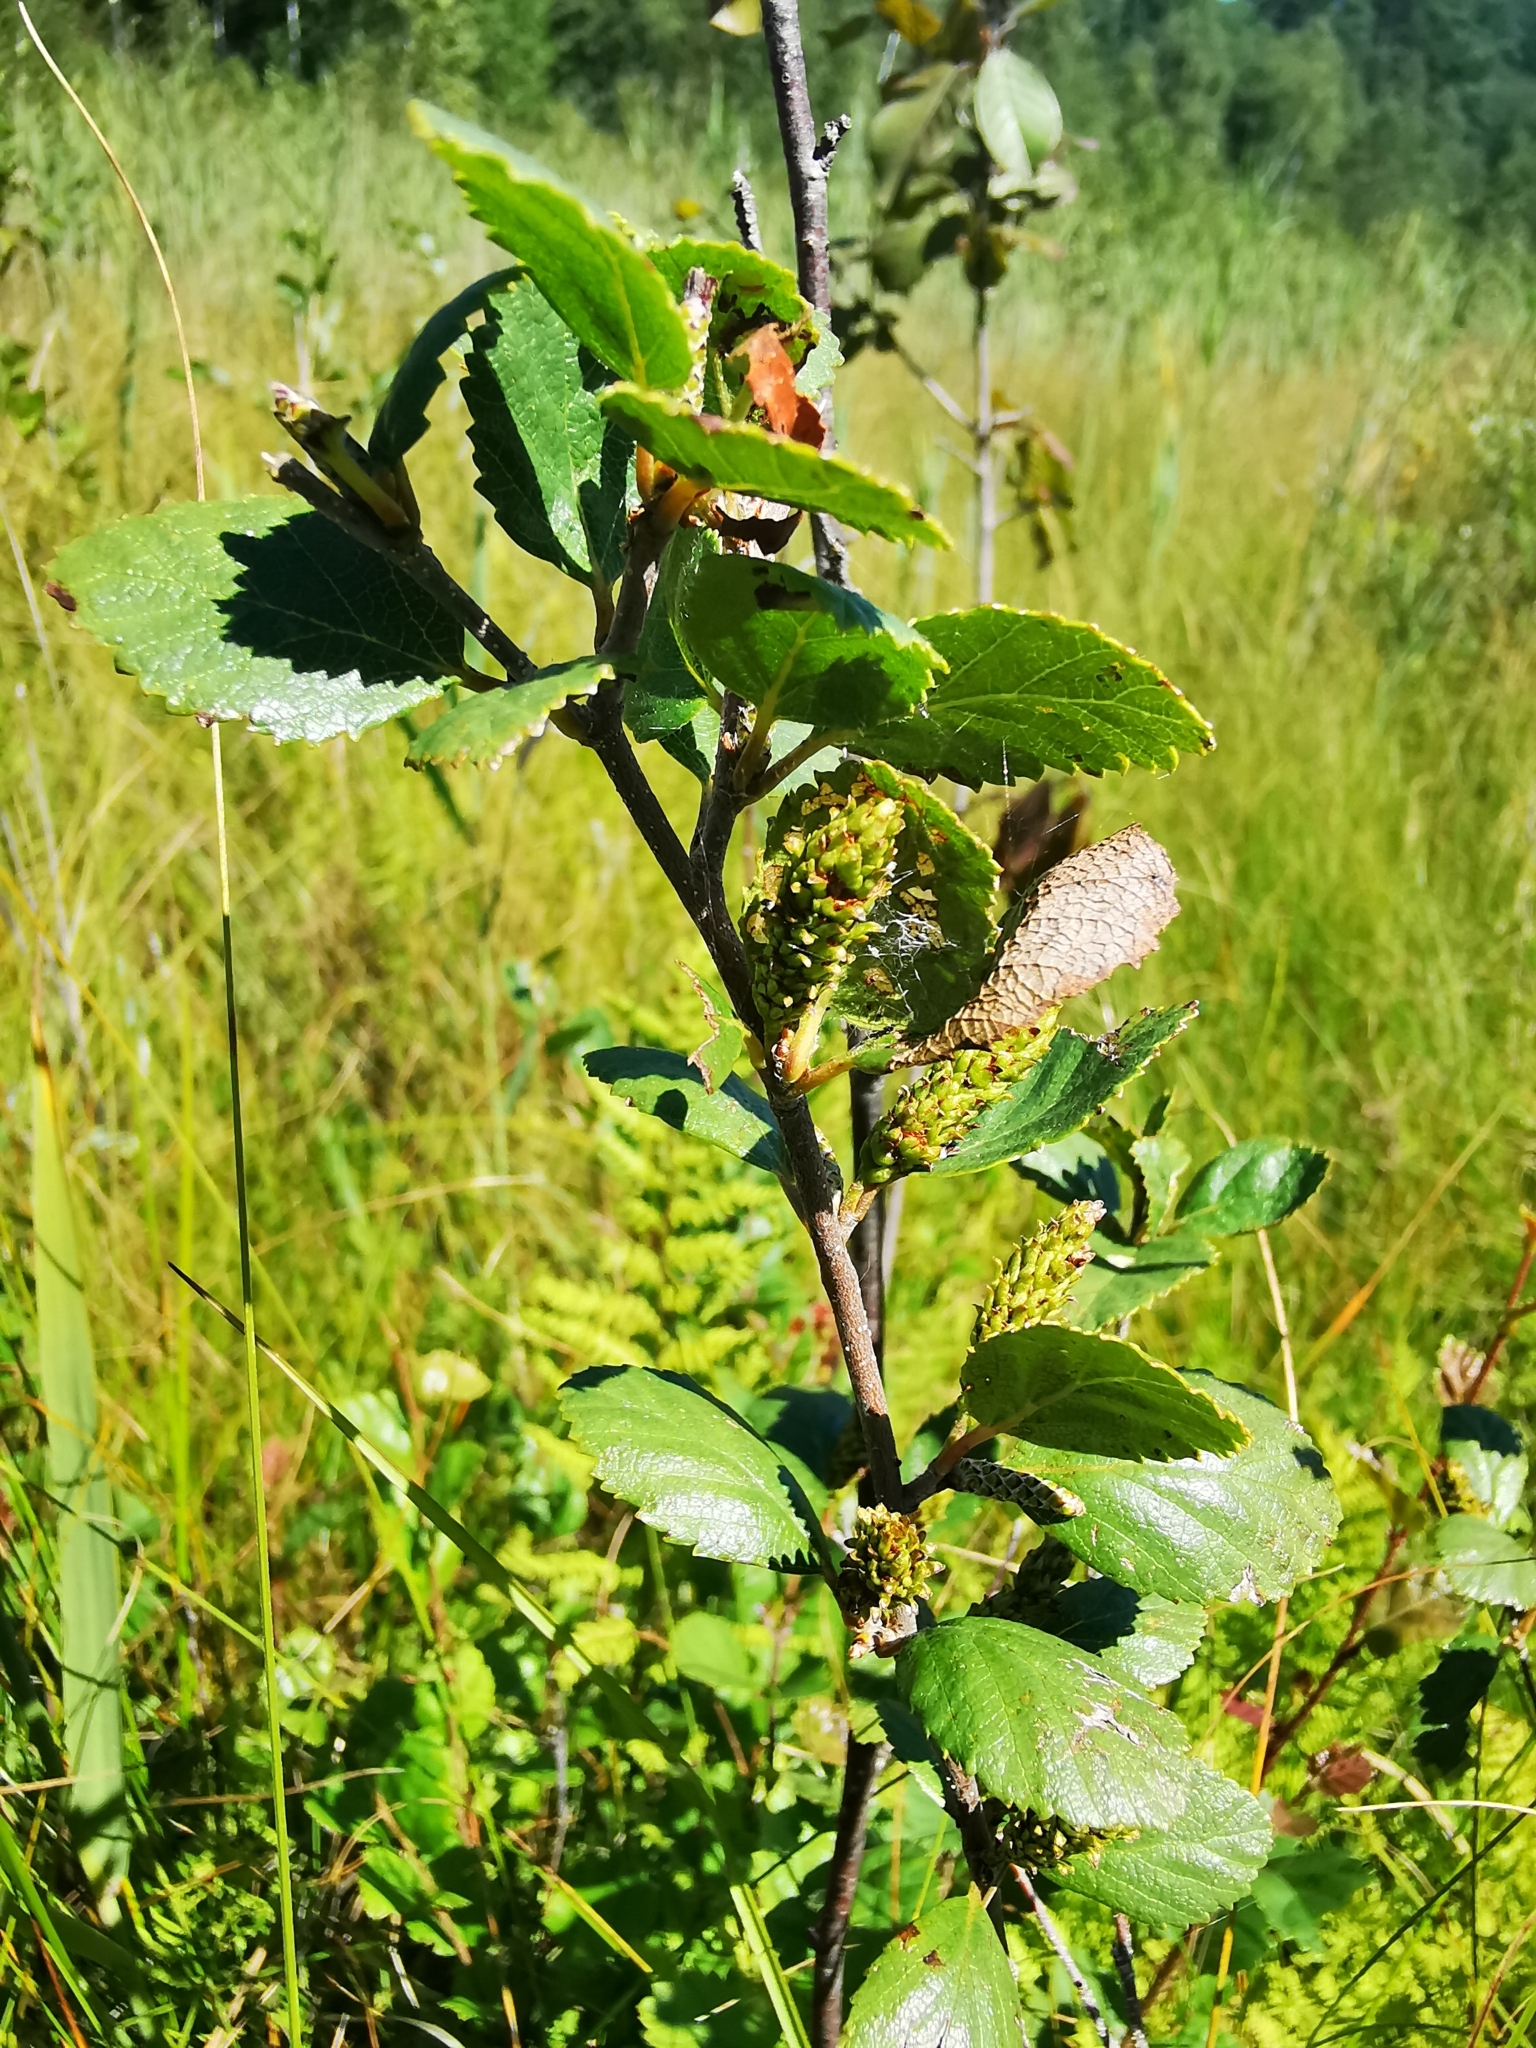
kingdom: Plantae
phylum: Tracheophyta
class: Magnoliopsida
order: Fagales
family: Betulaceae
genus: Betula
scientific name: Betula humilis
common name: Shrubby birch
